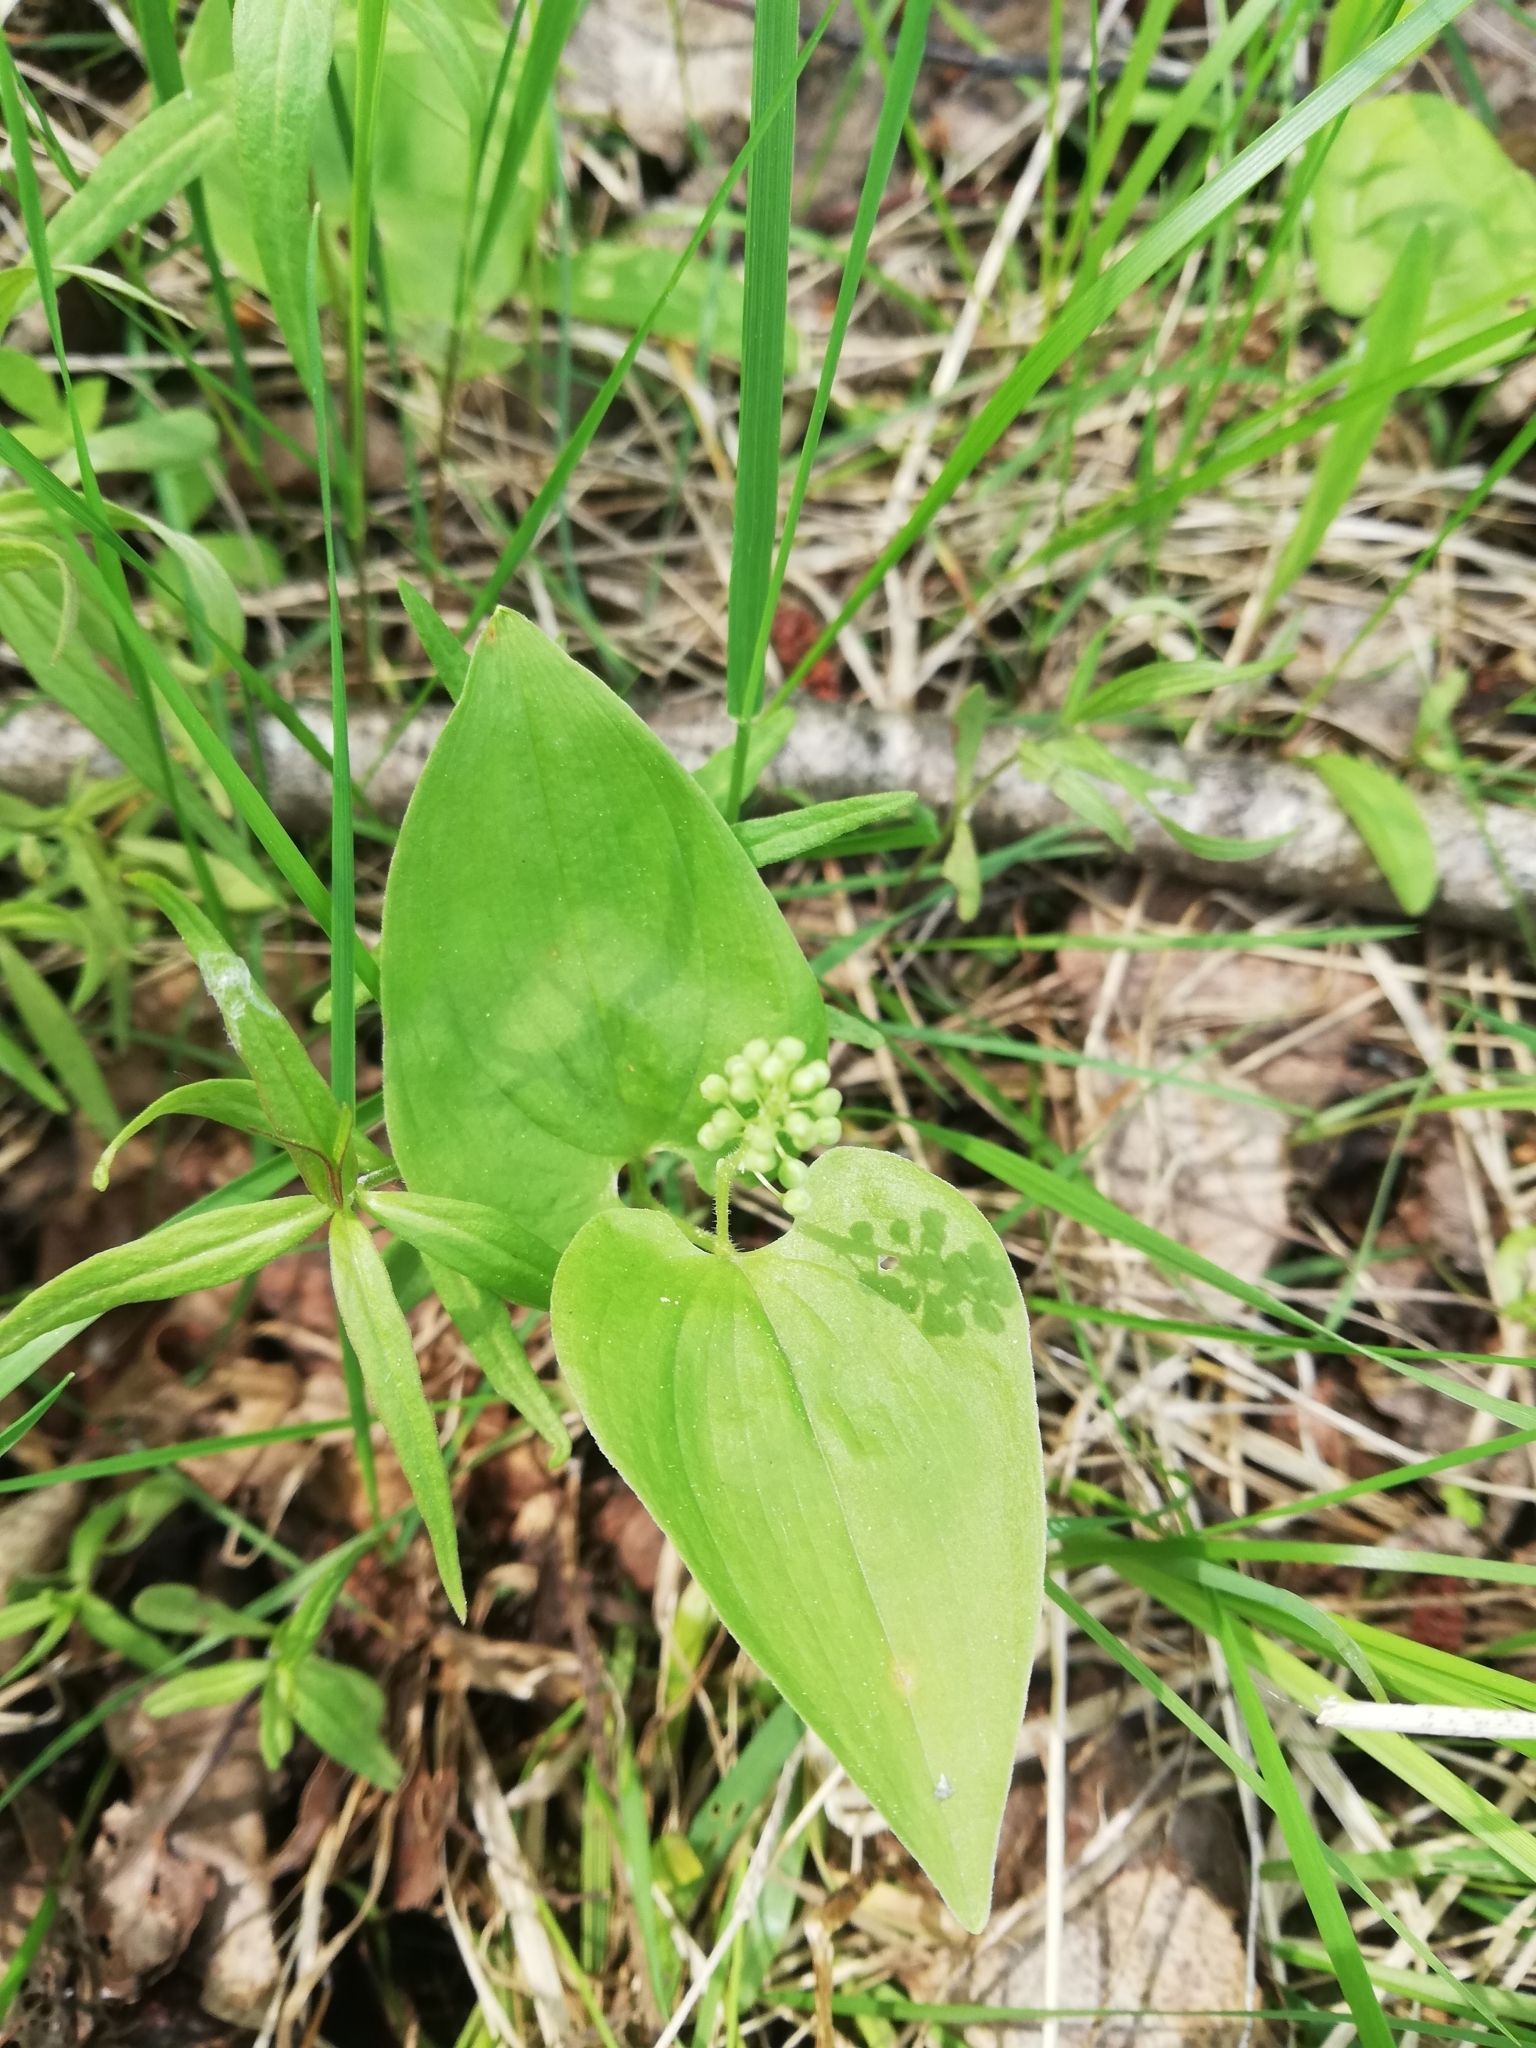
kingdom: Plantae
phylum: Tracheophyta
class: Liliopsida
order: Asparagales
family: Asparagaceae
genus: Maianthemum
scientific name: Maianthemum bifolium
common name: May lily
